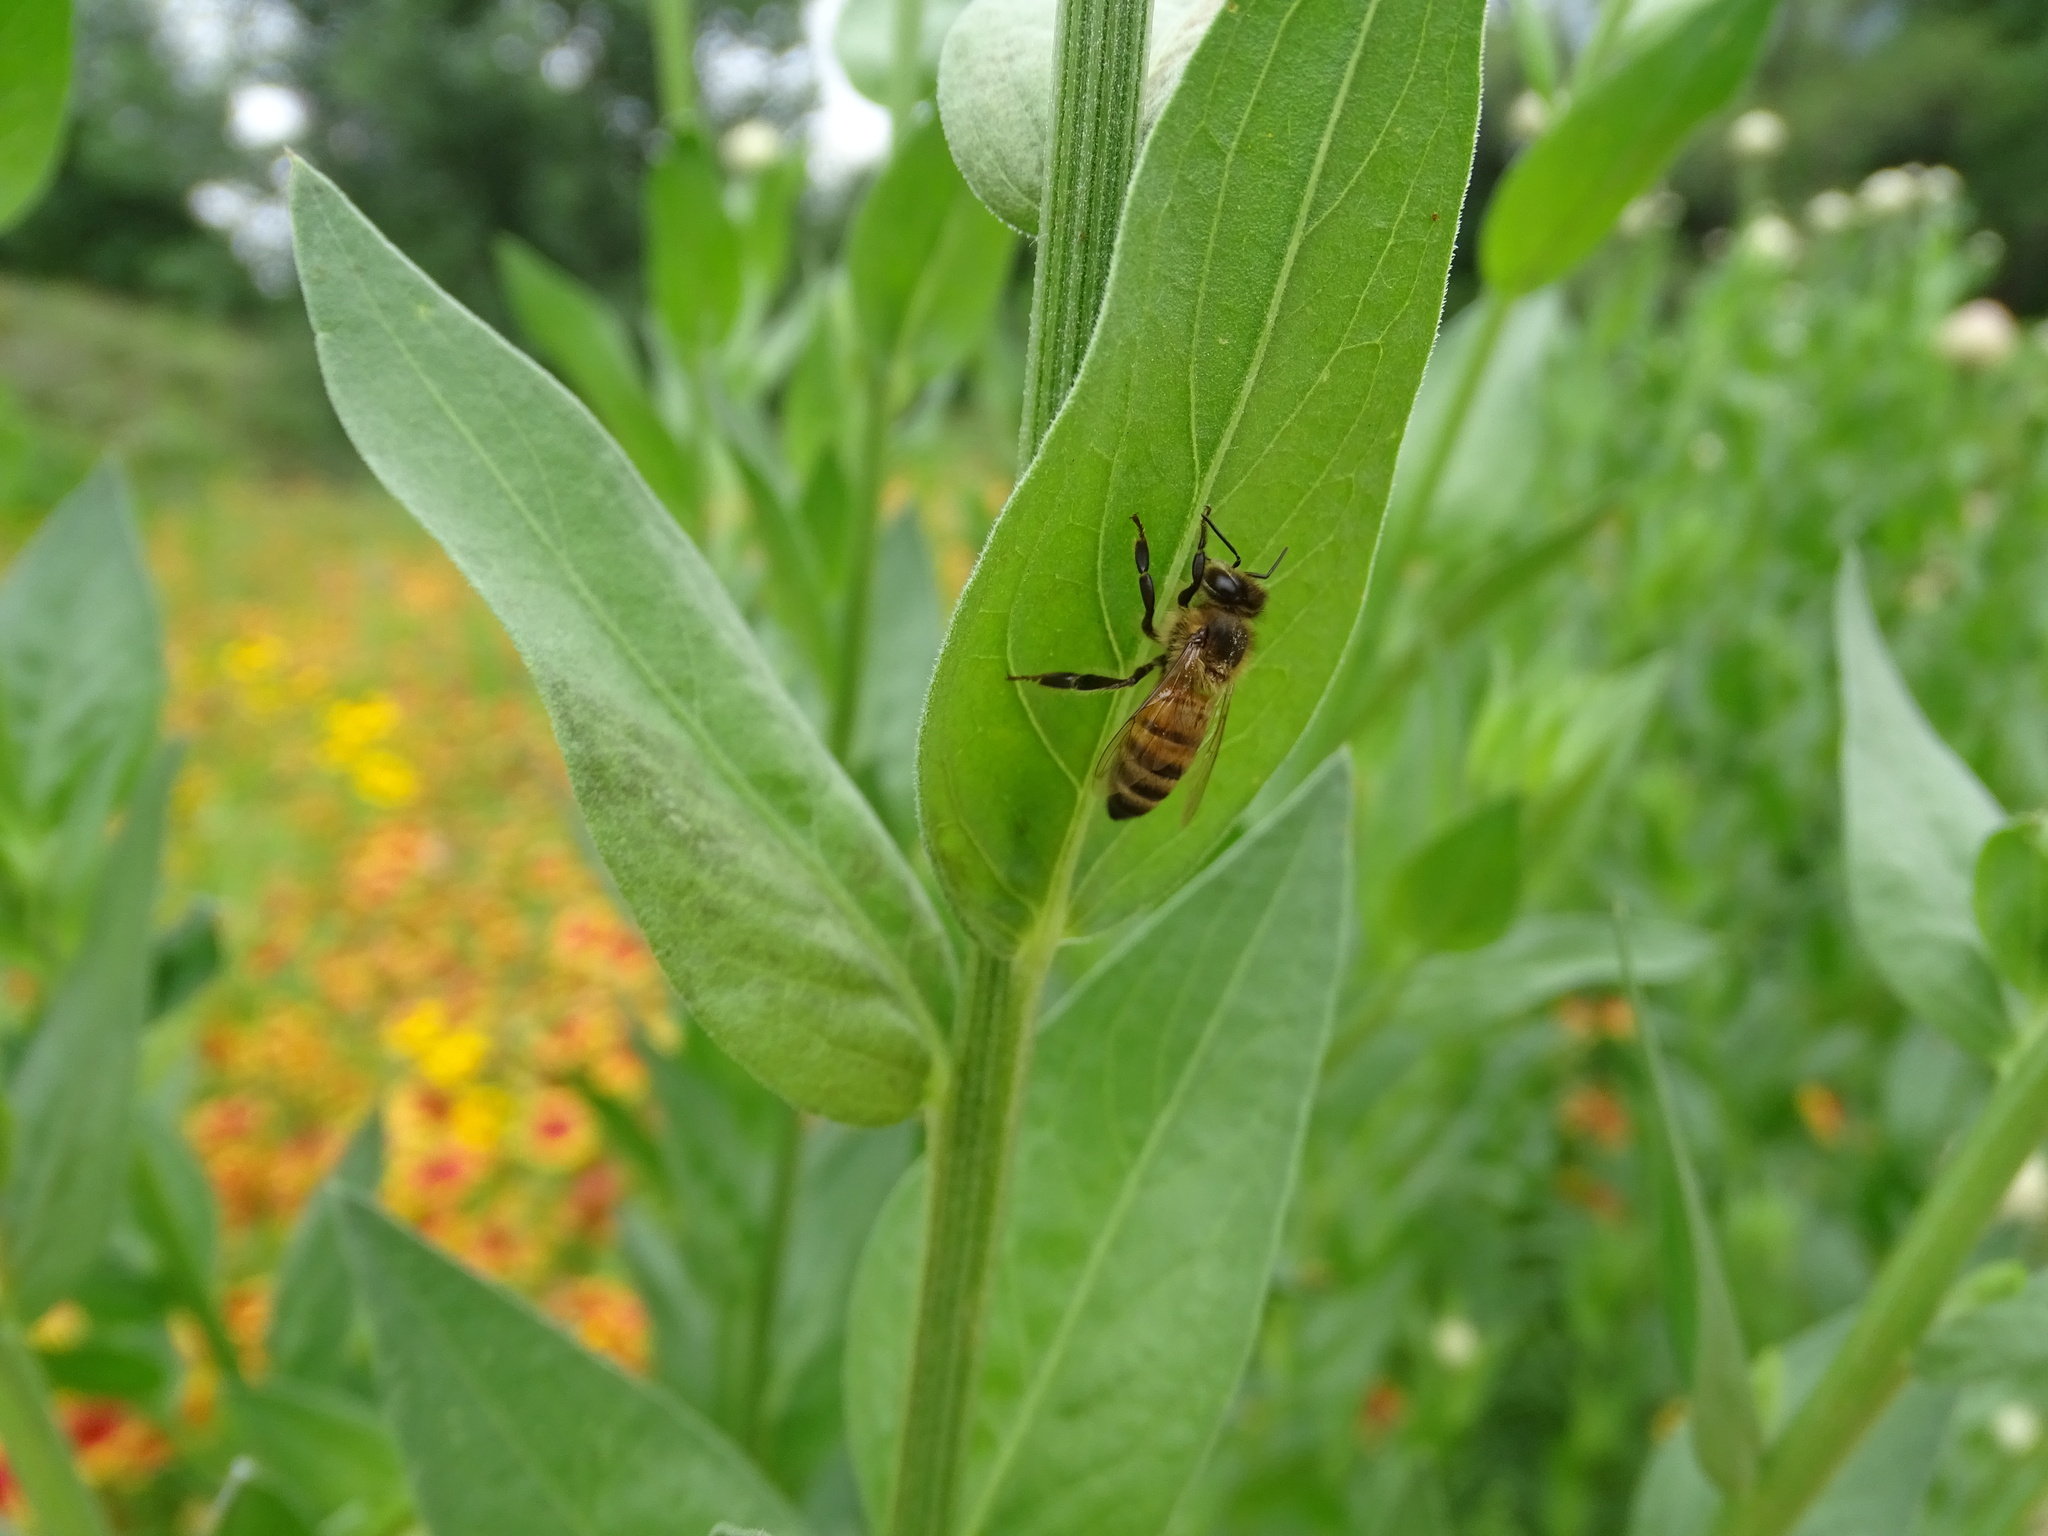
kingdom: Animalia
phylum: Arthropoda
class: Insecta
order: Hymenoptera
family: Apidae
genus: Apis
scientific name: Apis mellifera
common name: Honey bee
